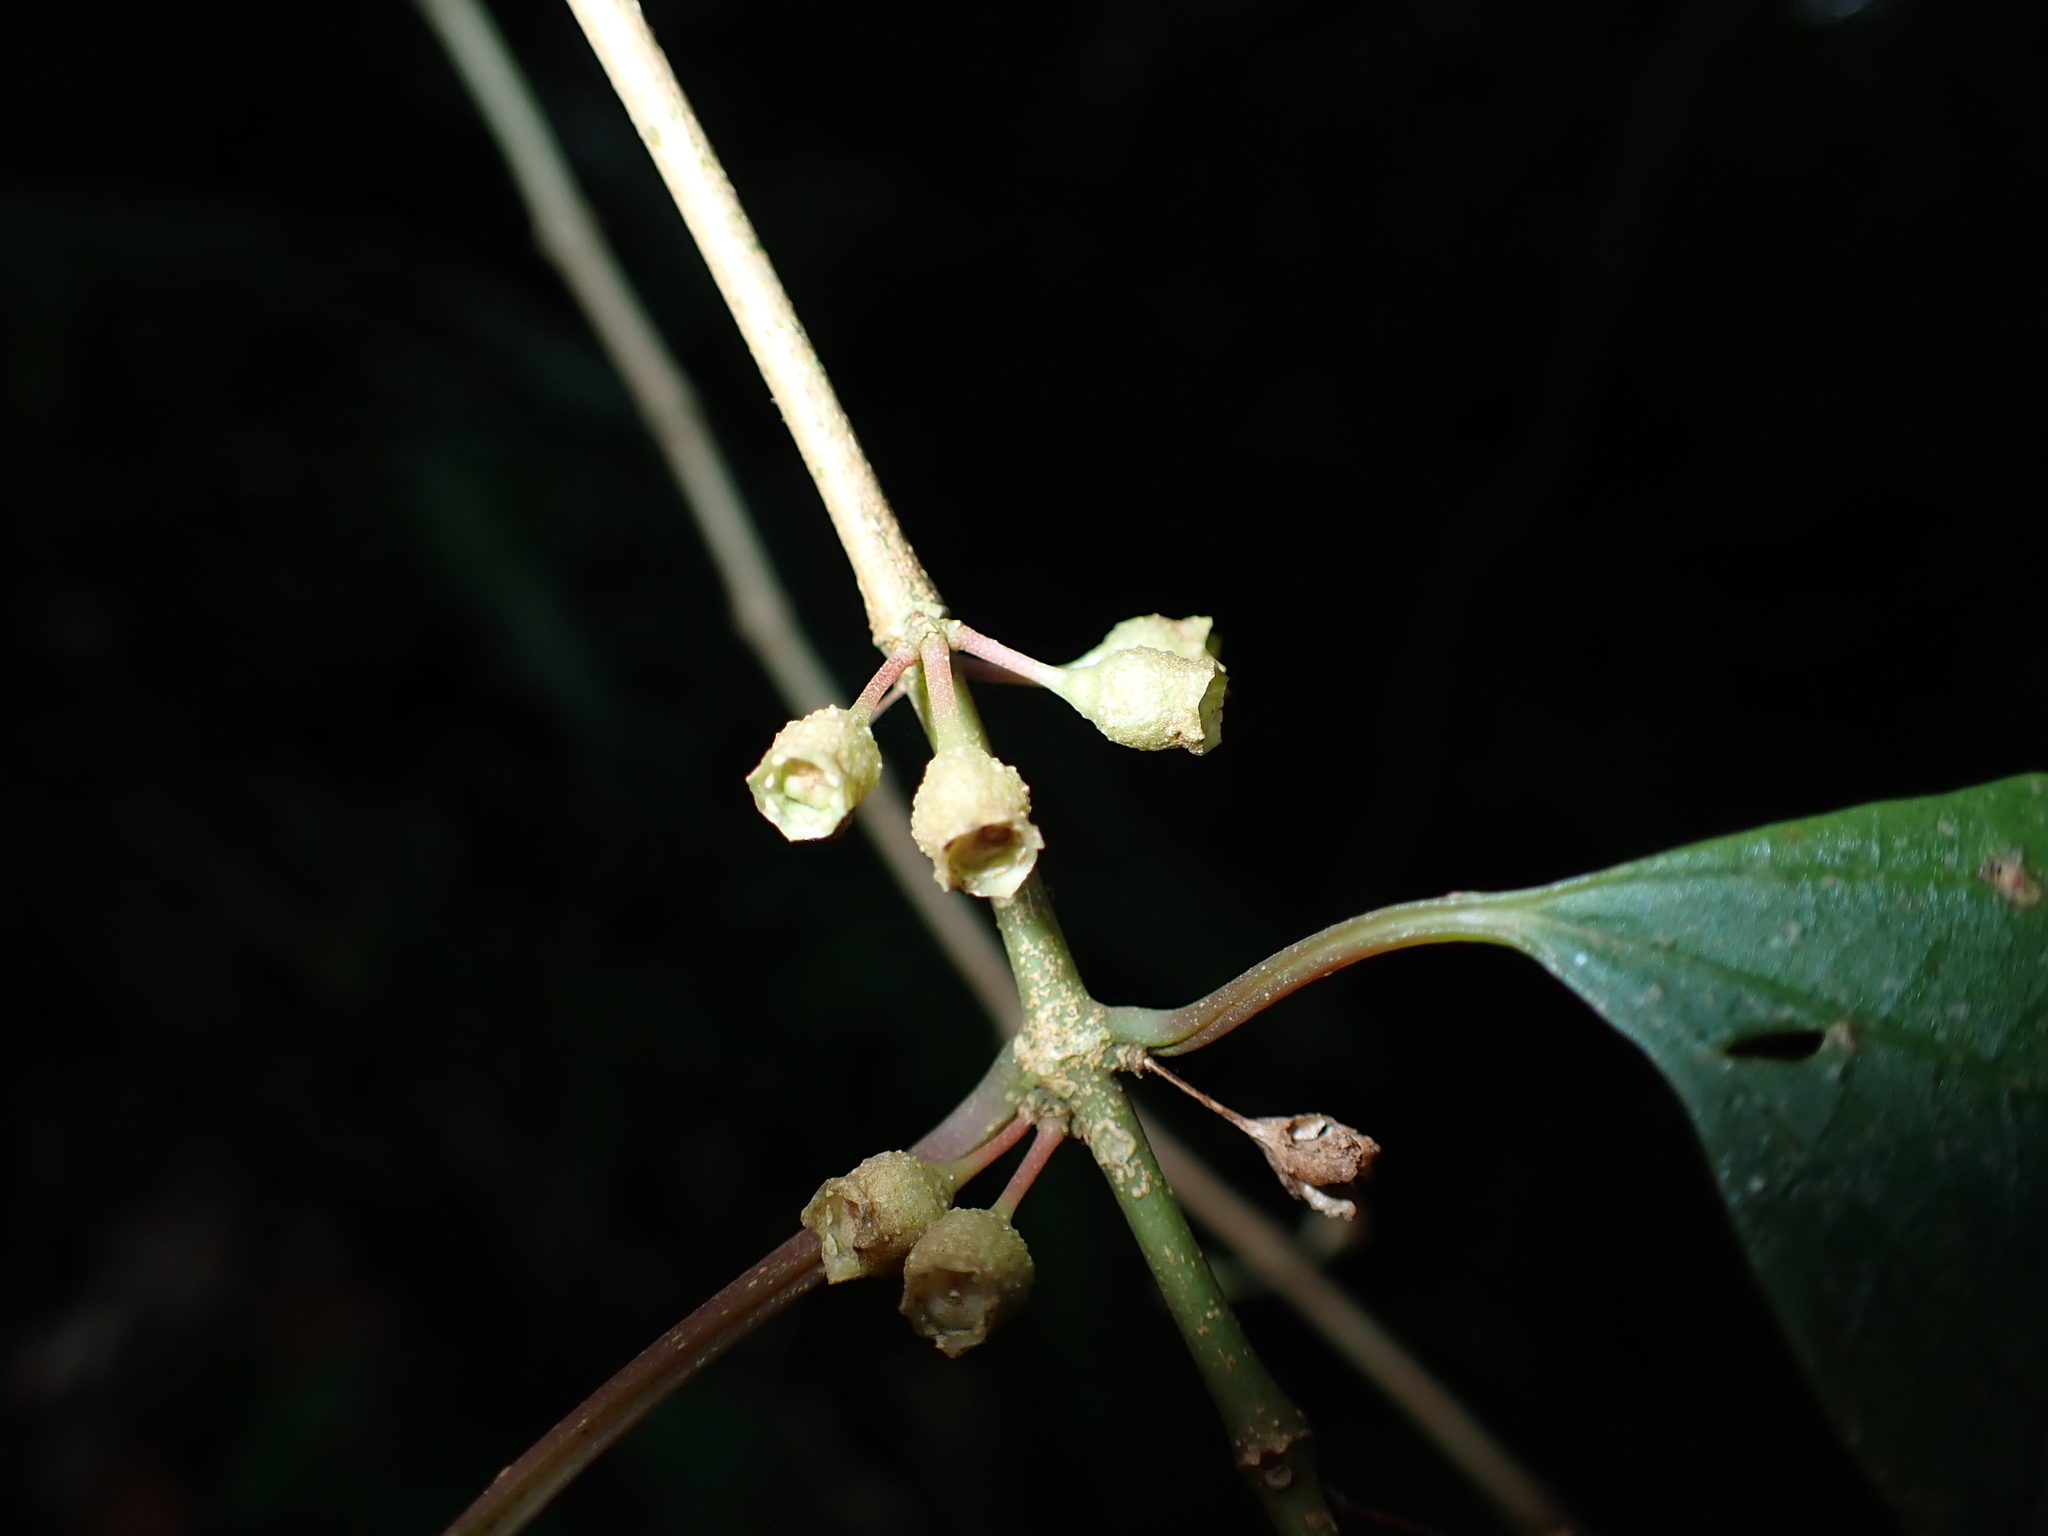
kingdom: Plantae
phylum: Tracheophyta
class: Magnoliopsida
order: Myrtales
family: Melastomataceae
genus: Blastus
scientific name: Blastus cochinchinensis
